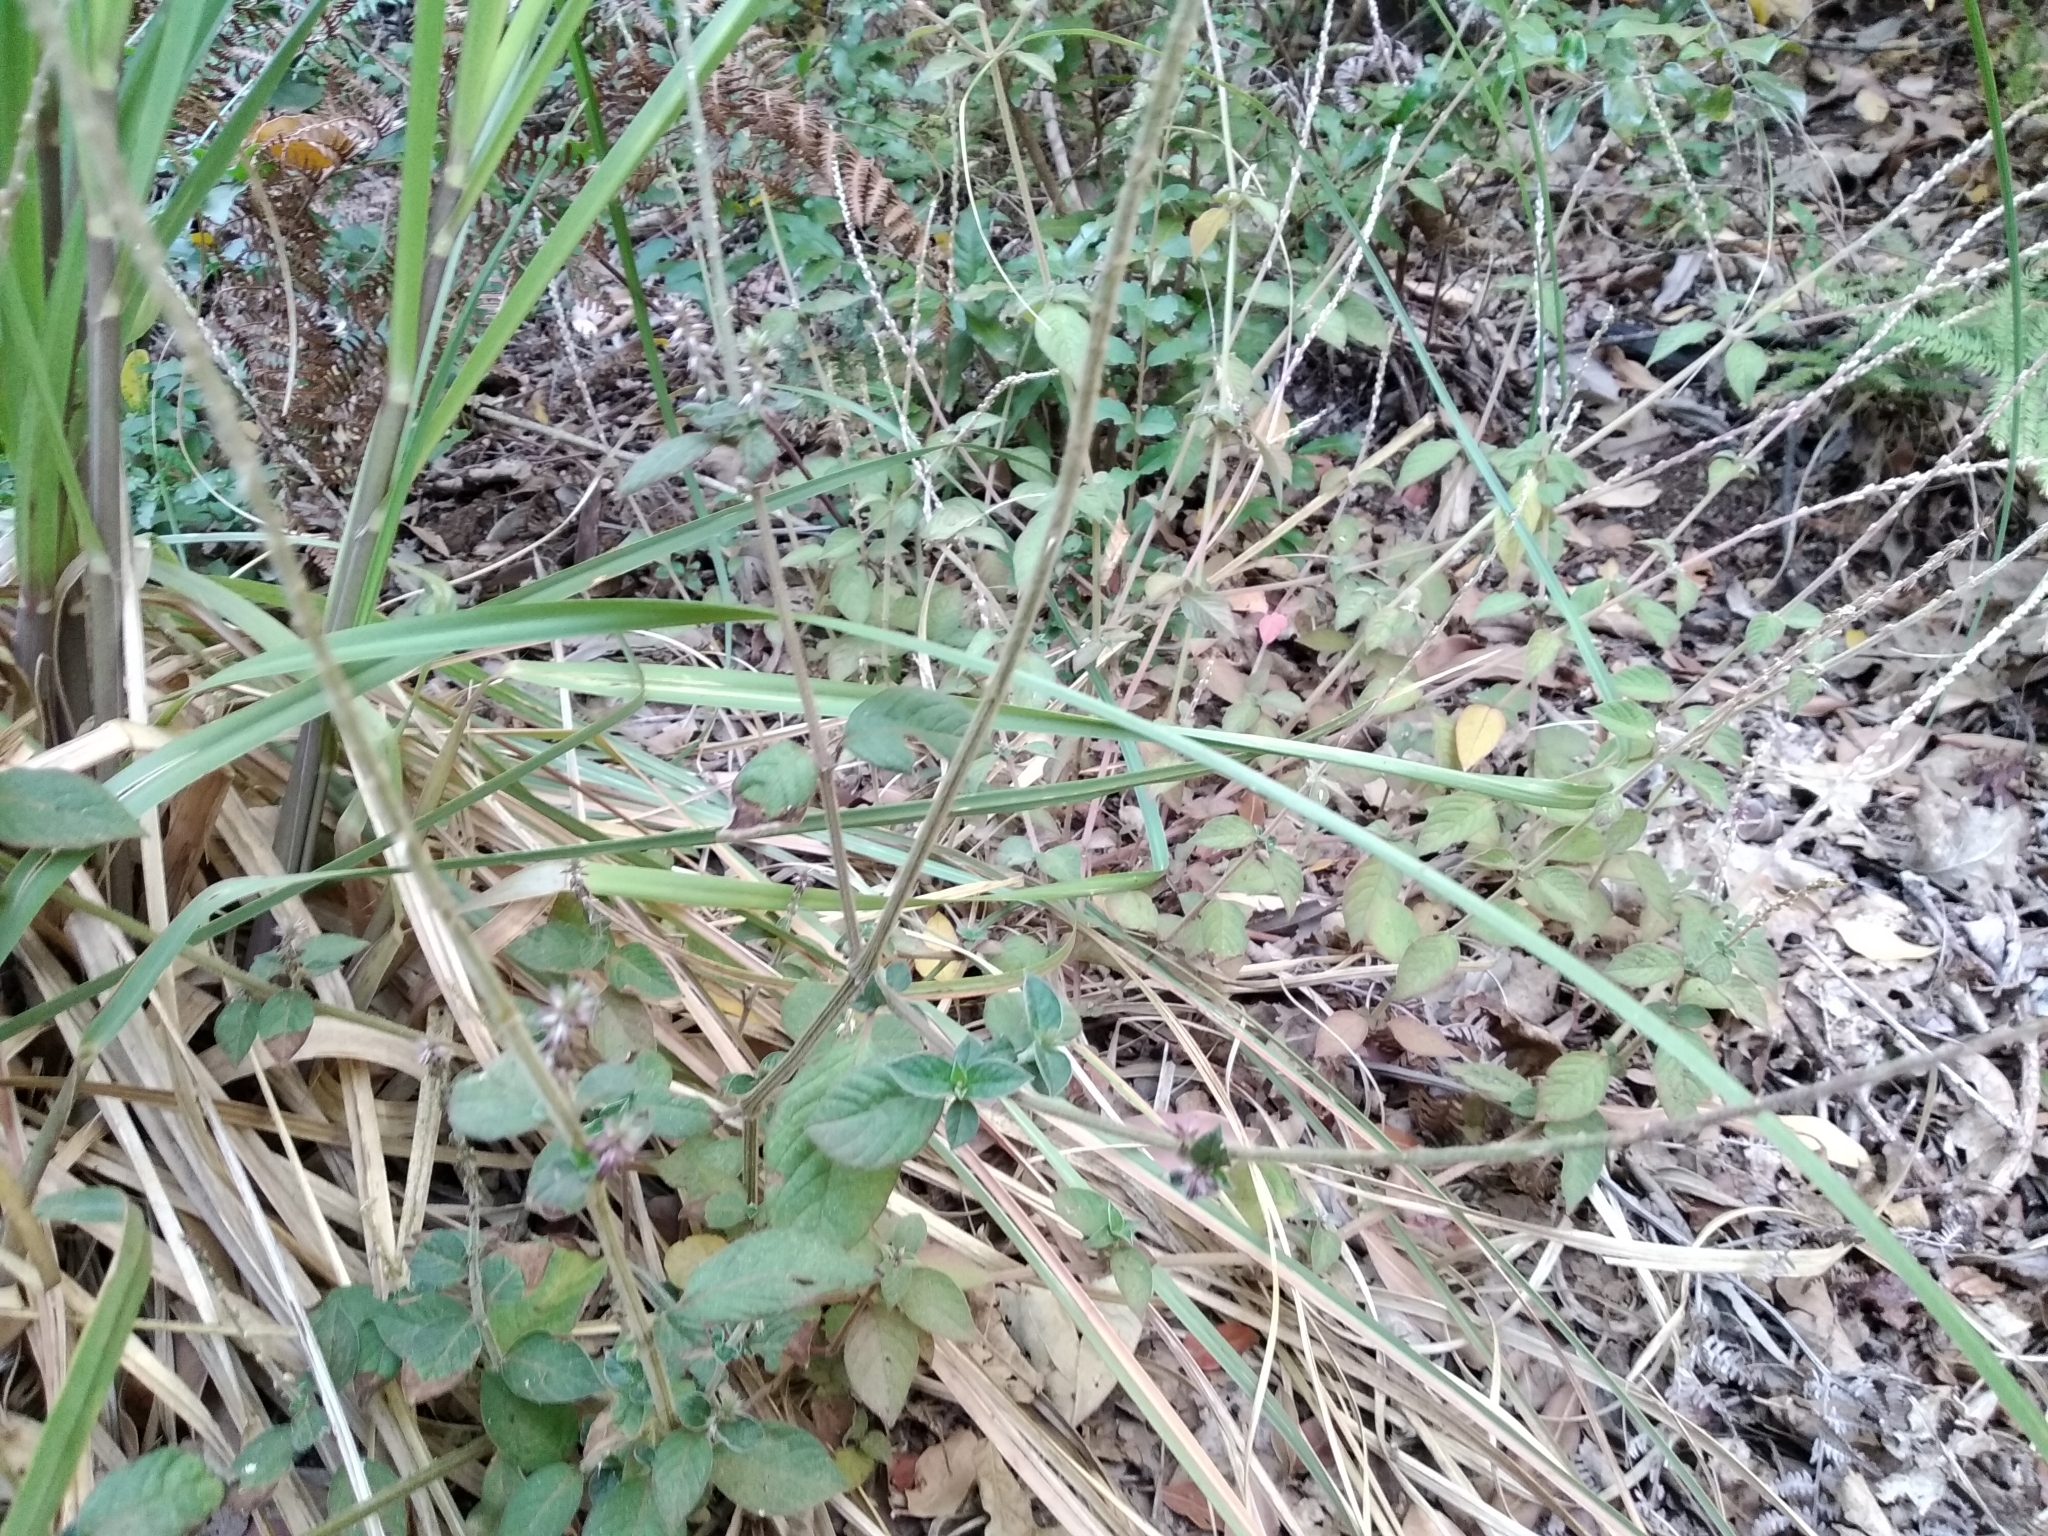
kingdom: Plantae
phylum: Tracheophyta
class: Magnoliopsida
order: Caryophyllales
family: Amaranthaceae
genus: Achyranthes
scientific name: Achyranthes aspera
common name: Devil's horsewhip
